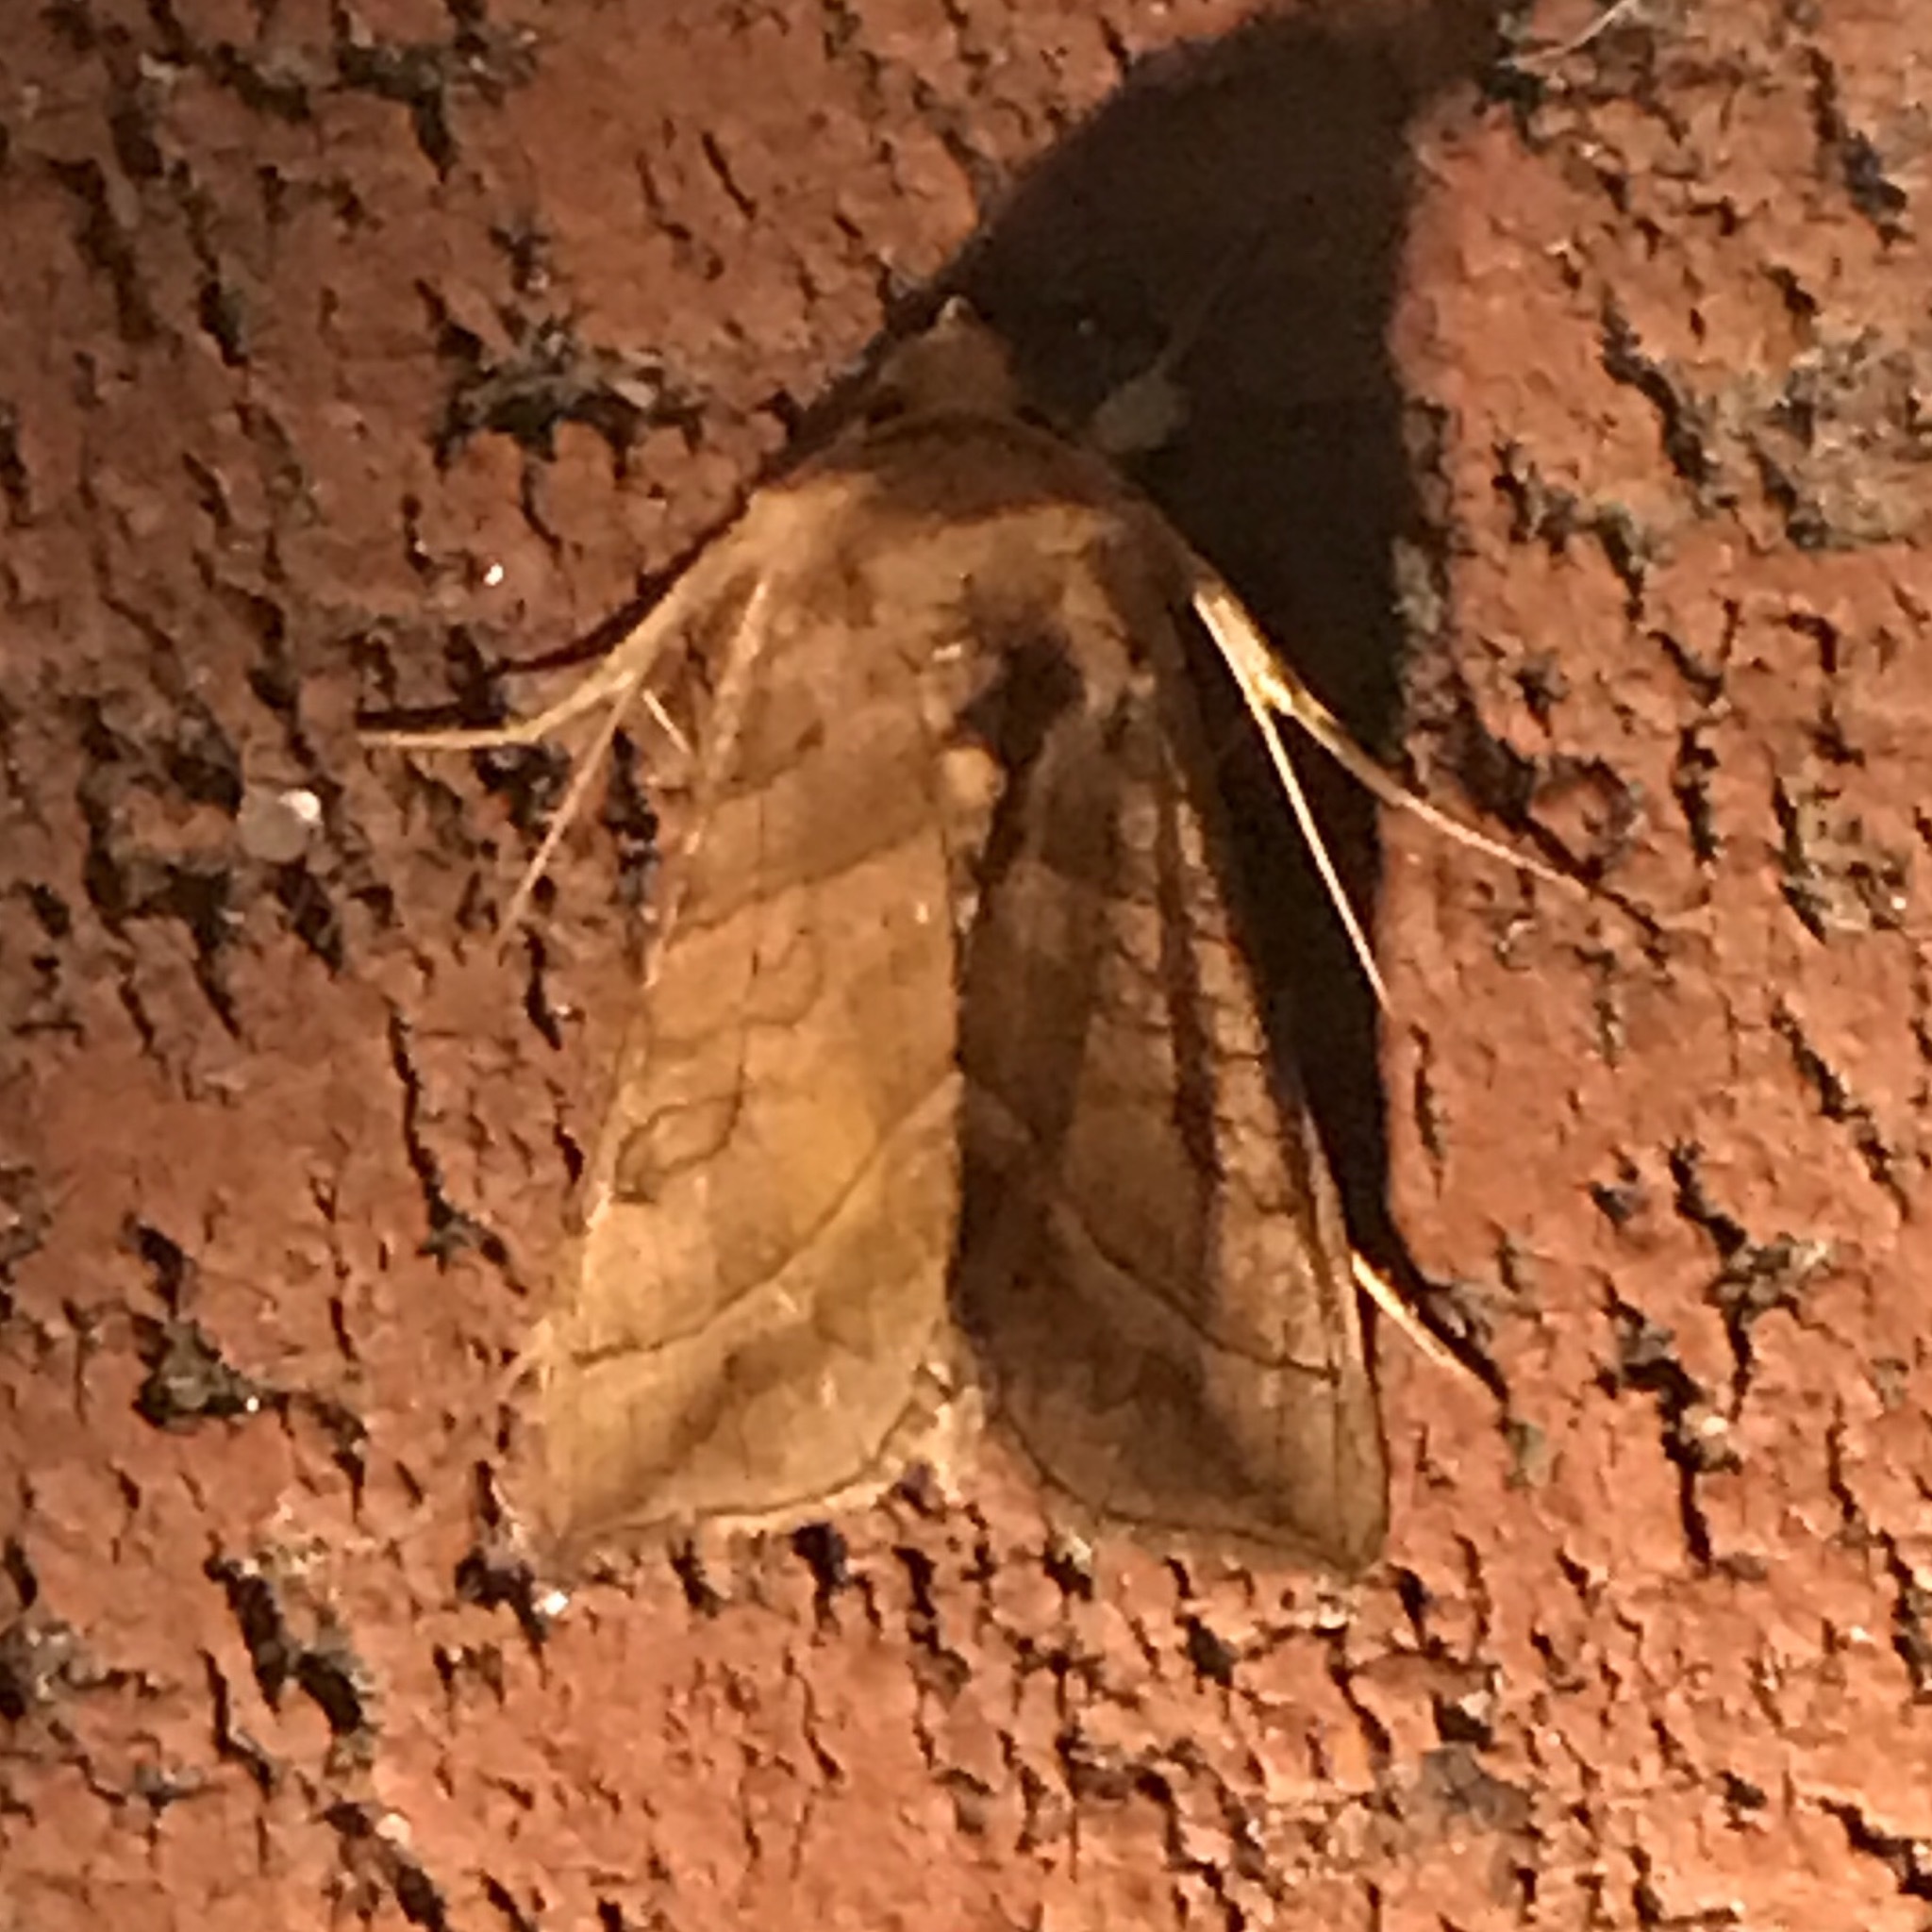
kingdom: Animalia
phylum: Arthropoda
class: Insecta
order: Lepidoptera
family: Noctuidae
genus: Diachrysia
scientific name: Diachrysia aereoides
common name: Dark-spotted looper moth
